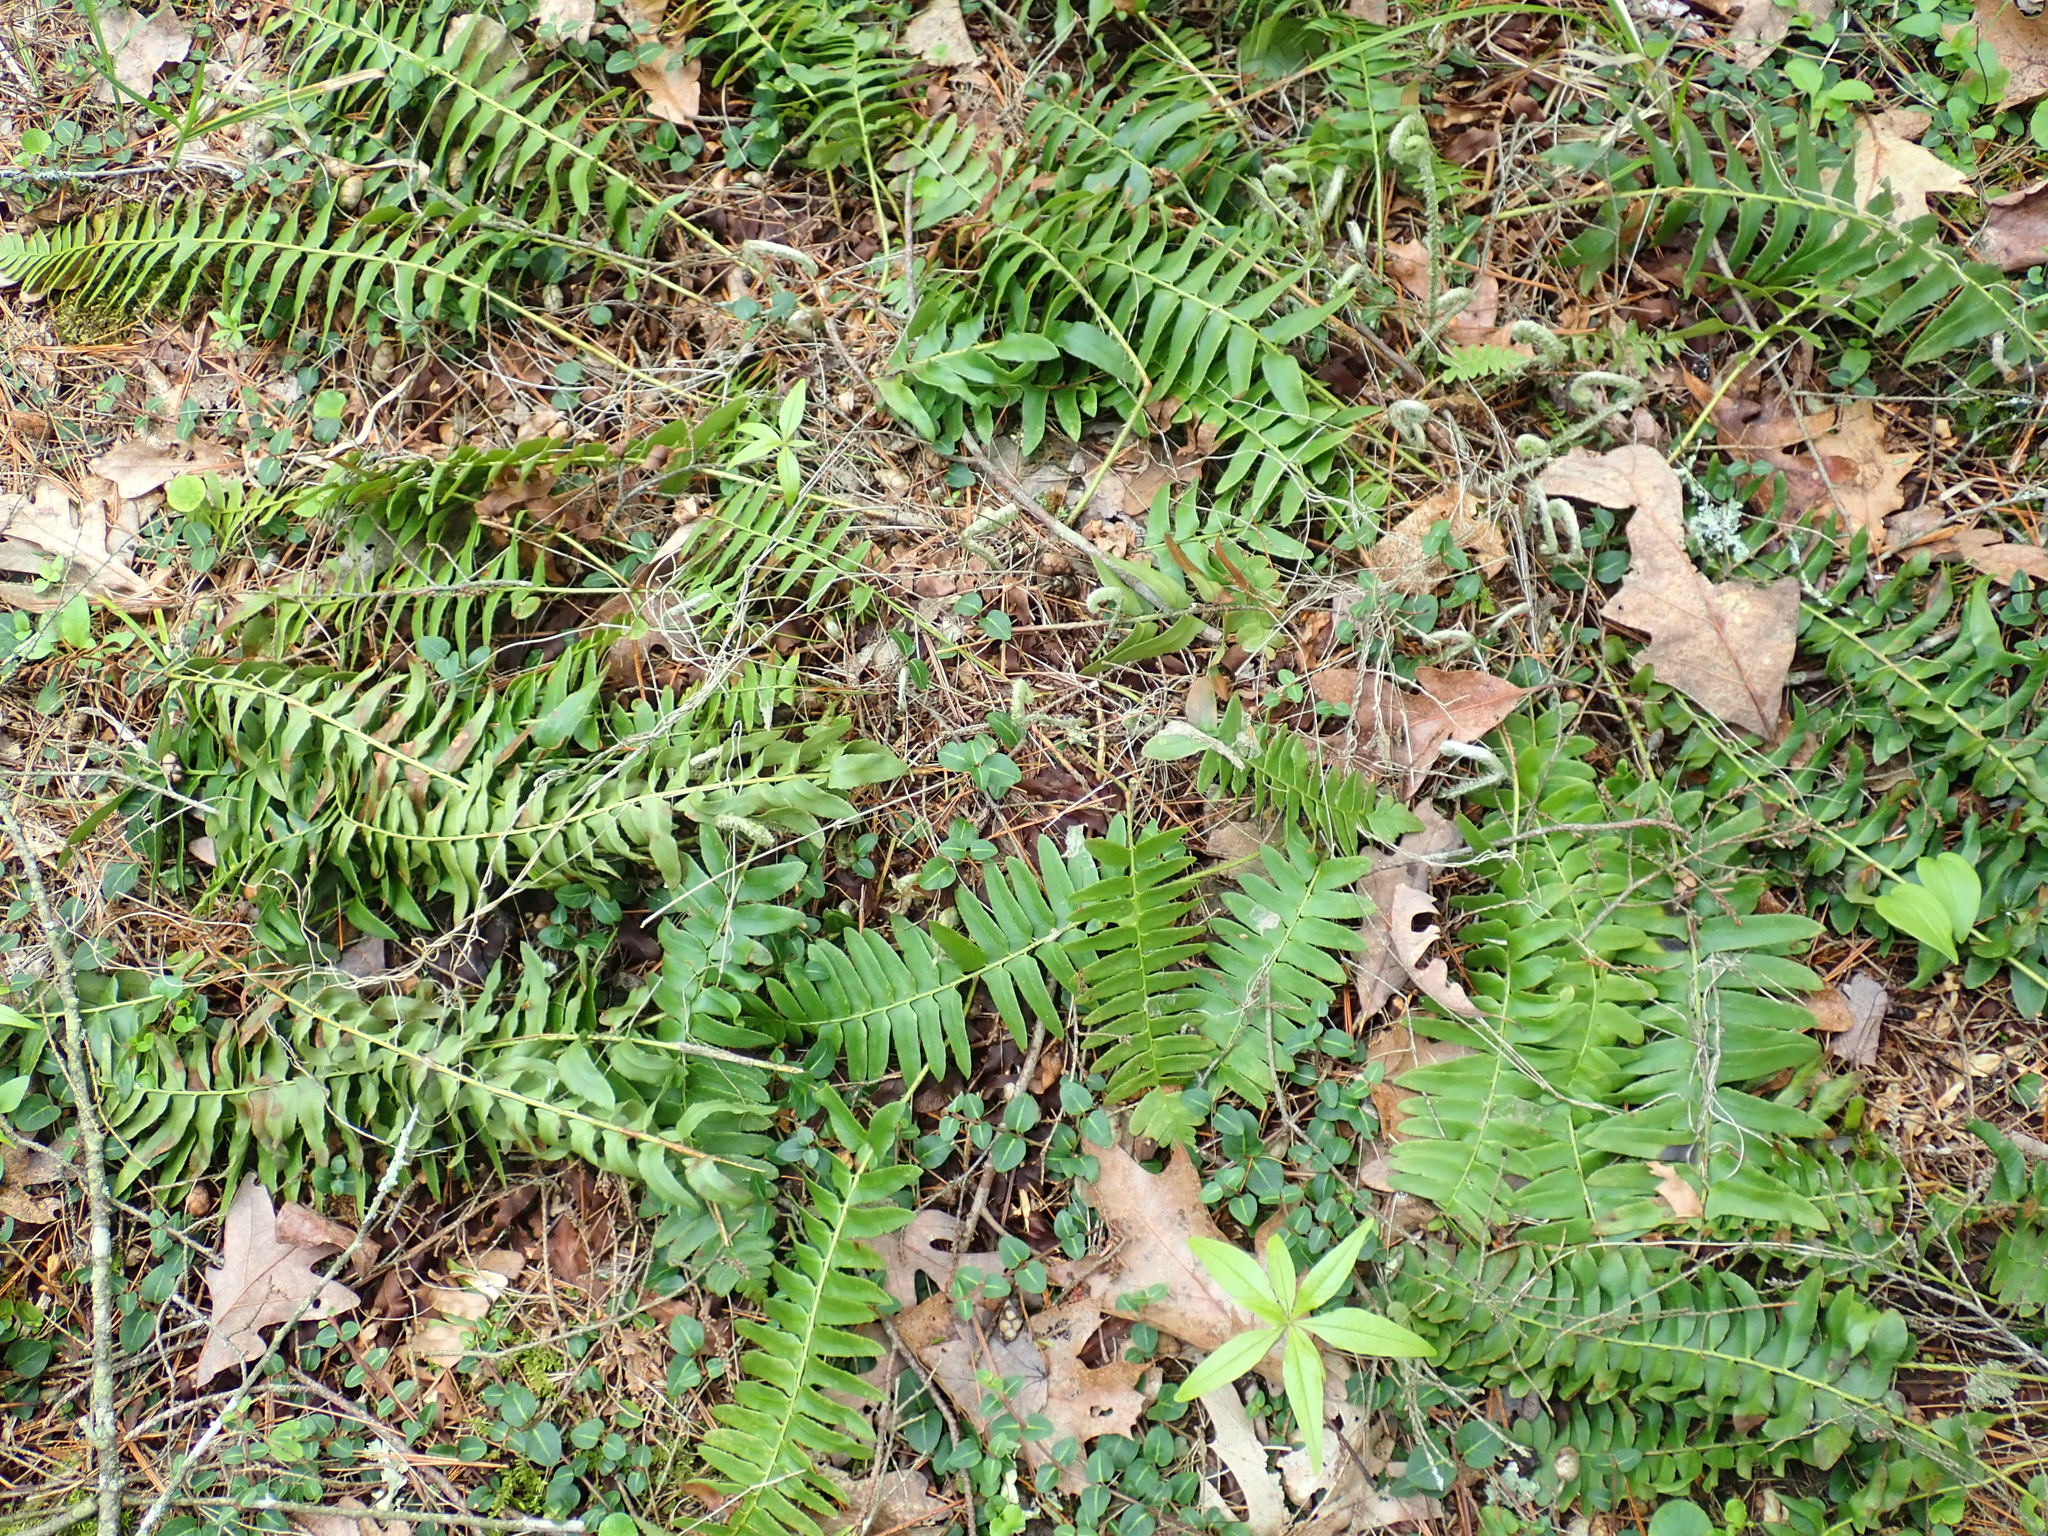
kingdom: Plantae
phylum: Tracheophyta
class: Polypodiopsida
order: Polypodiales
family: Dryopteridaceae
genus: Polystichum
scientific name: Polystichum acrostichoides
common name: Christmas fern
